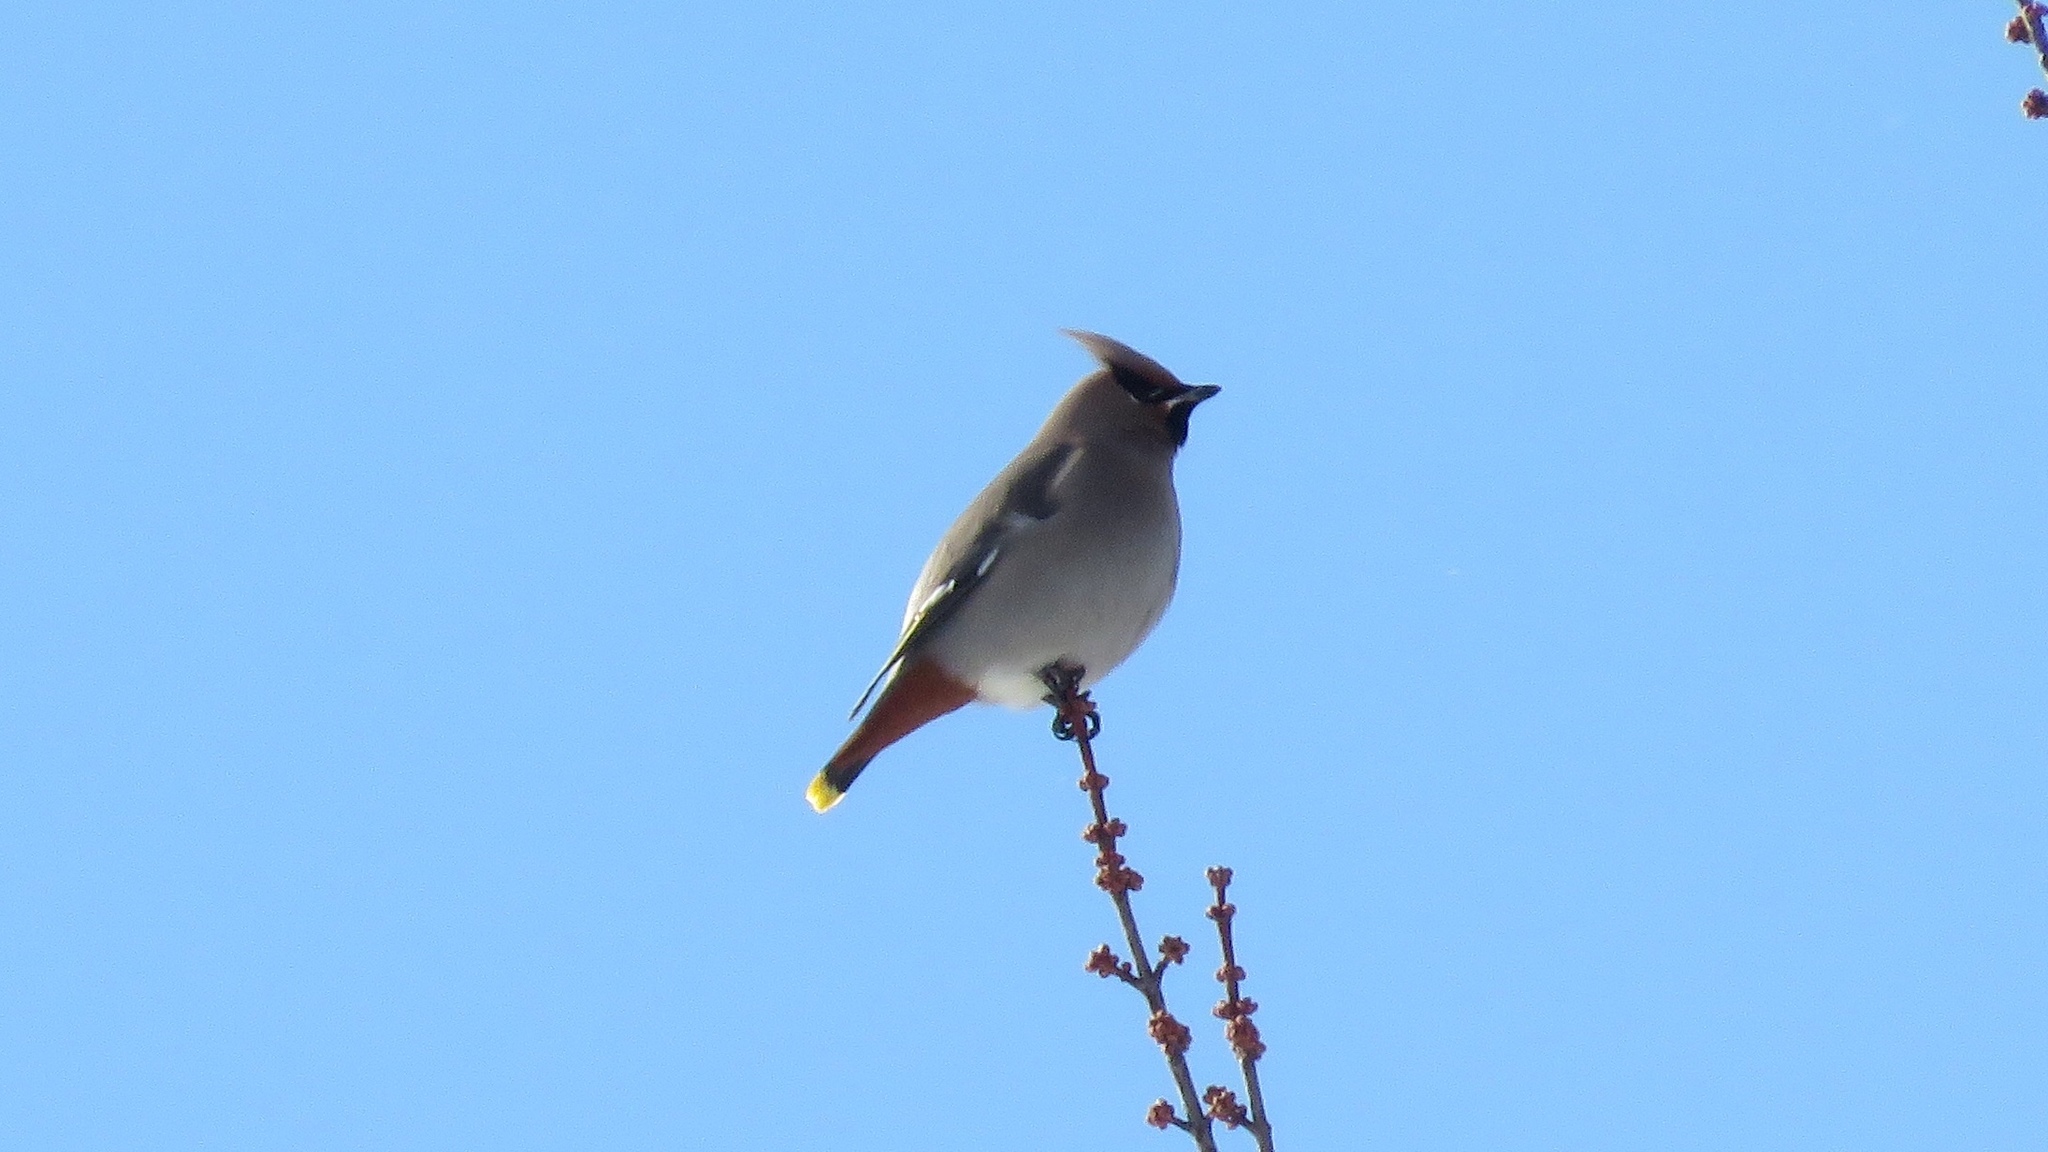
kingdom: Animalia
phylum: Chordata
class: Aves
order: Passeriformes
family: Bombycillidae
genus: Bombycilla
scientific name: Bombycilla garrulus
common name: Bohemian waxwing
